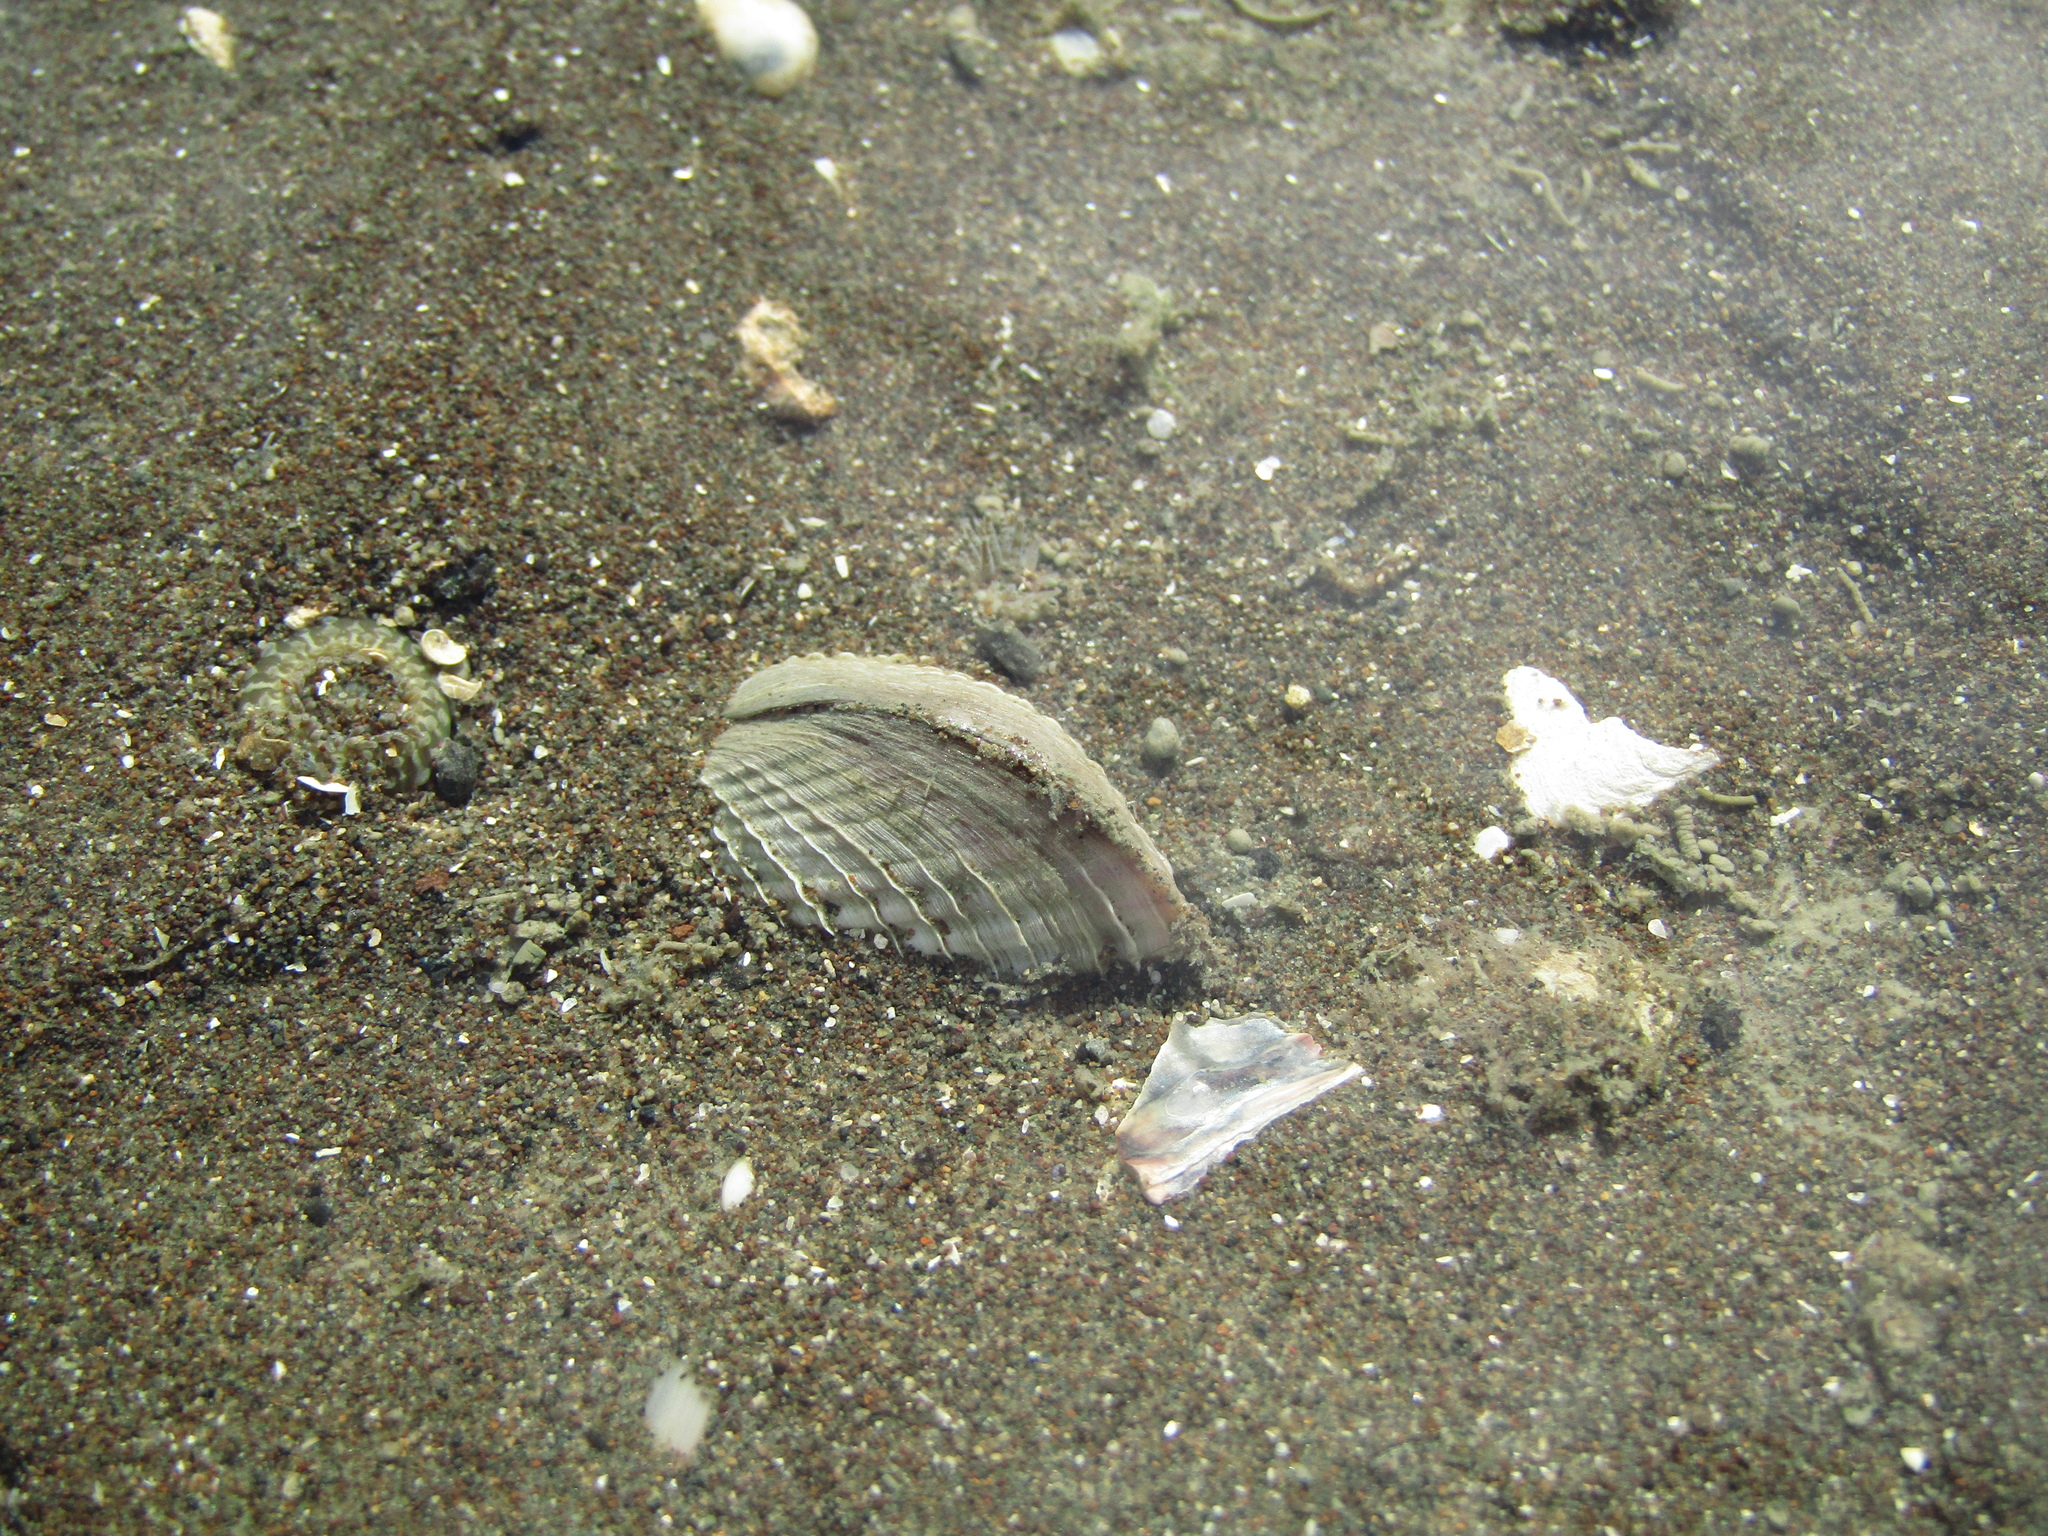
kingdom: Animalia
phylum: Mollusca
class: Bivalvia
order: Venerida
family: Veneridae
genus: Austrovenus
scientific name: Austrovenus stutchburyi
